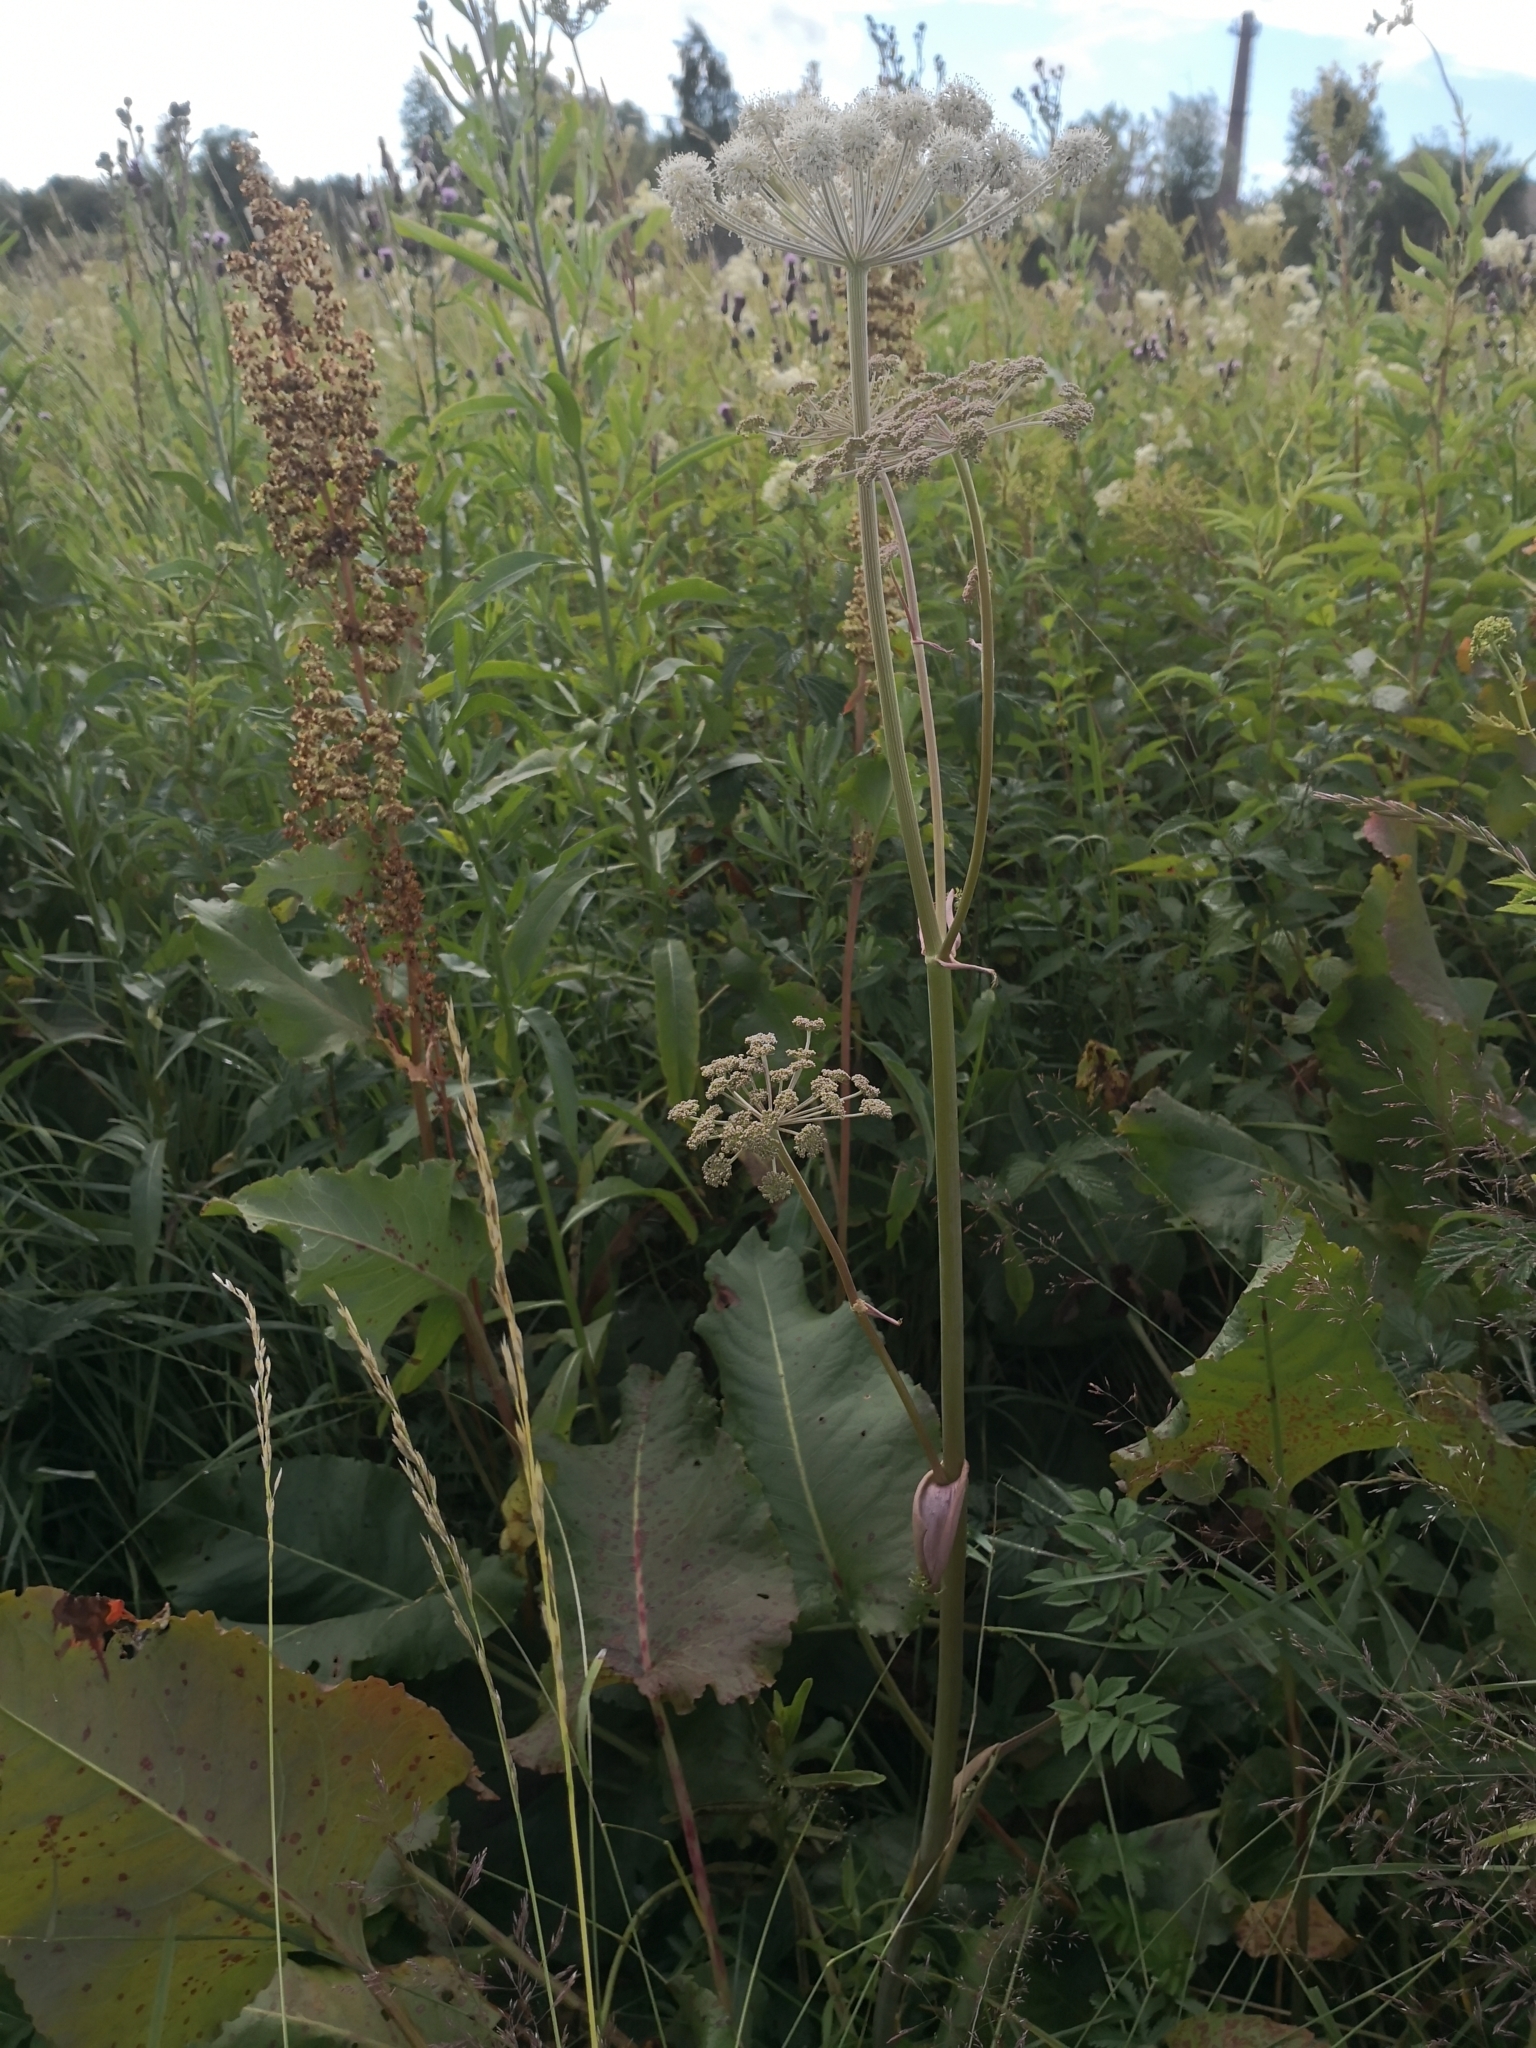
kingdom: Plantae
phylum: Tracheophyta
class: Magnoliopsida
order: Apiales
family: Apiaceae
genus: Angelica
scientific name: Angelica sylvestris
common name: Wild angelica
